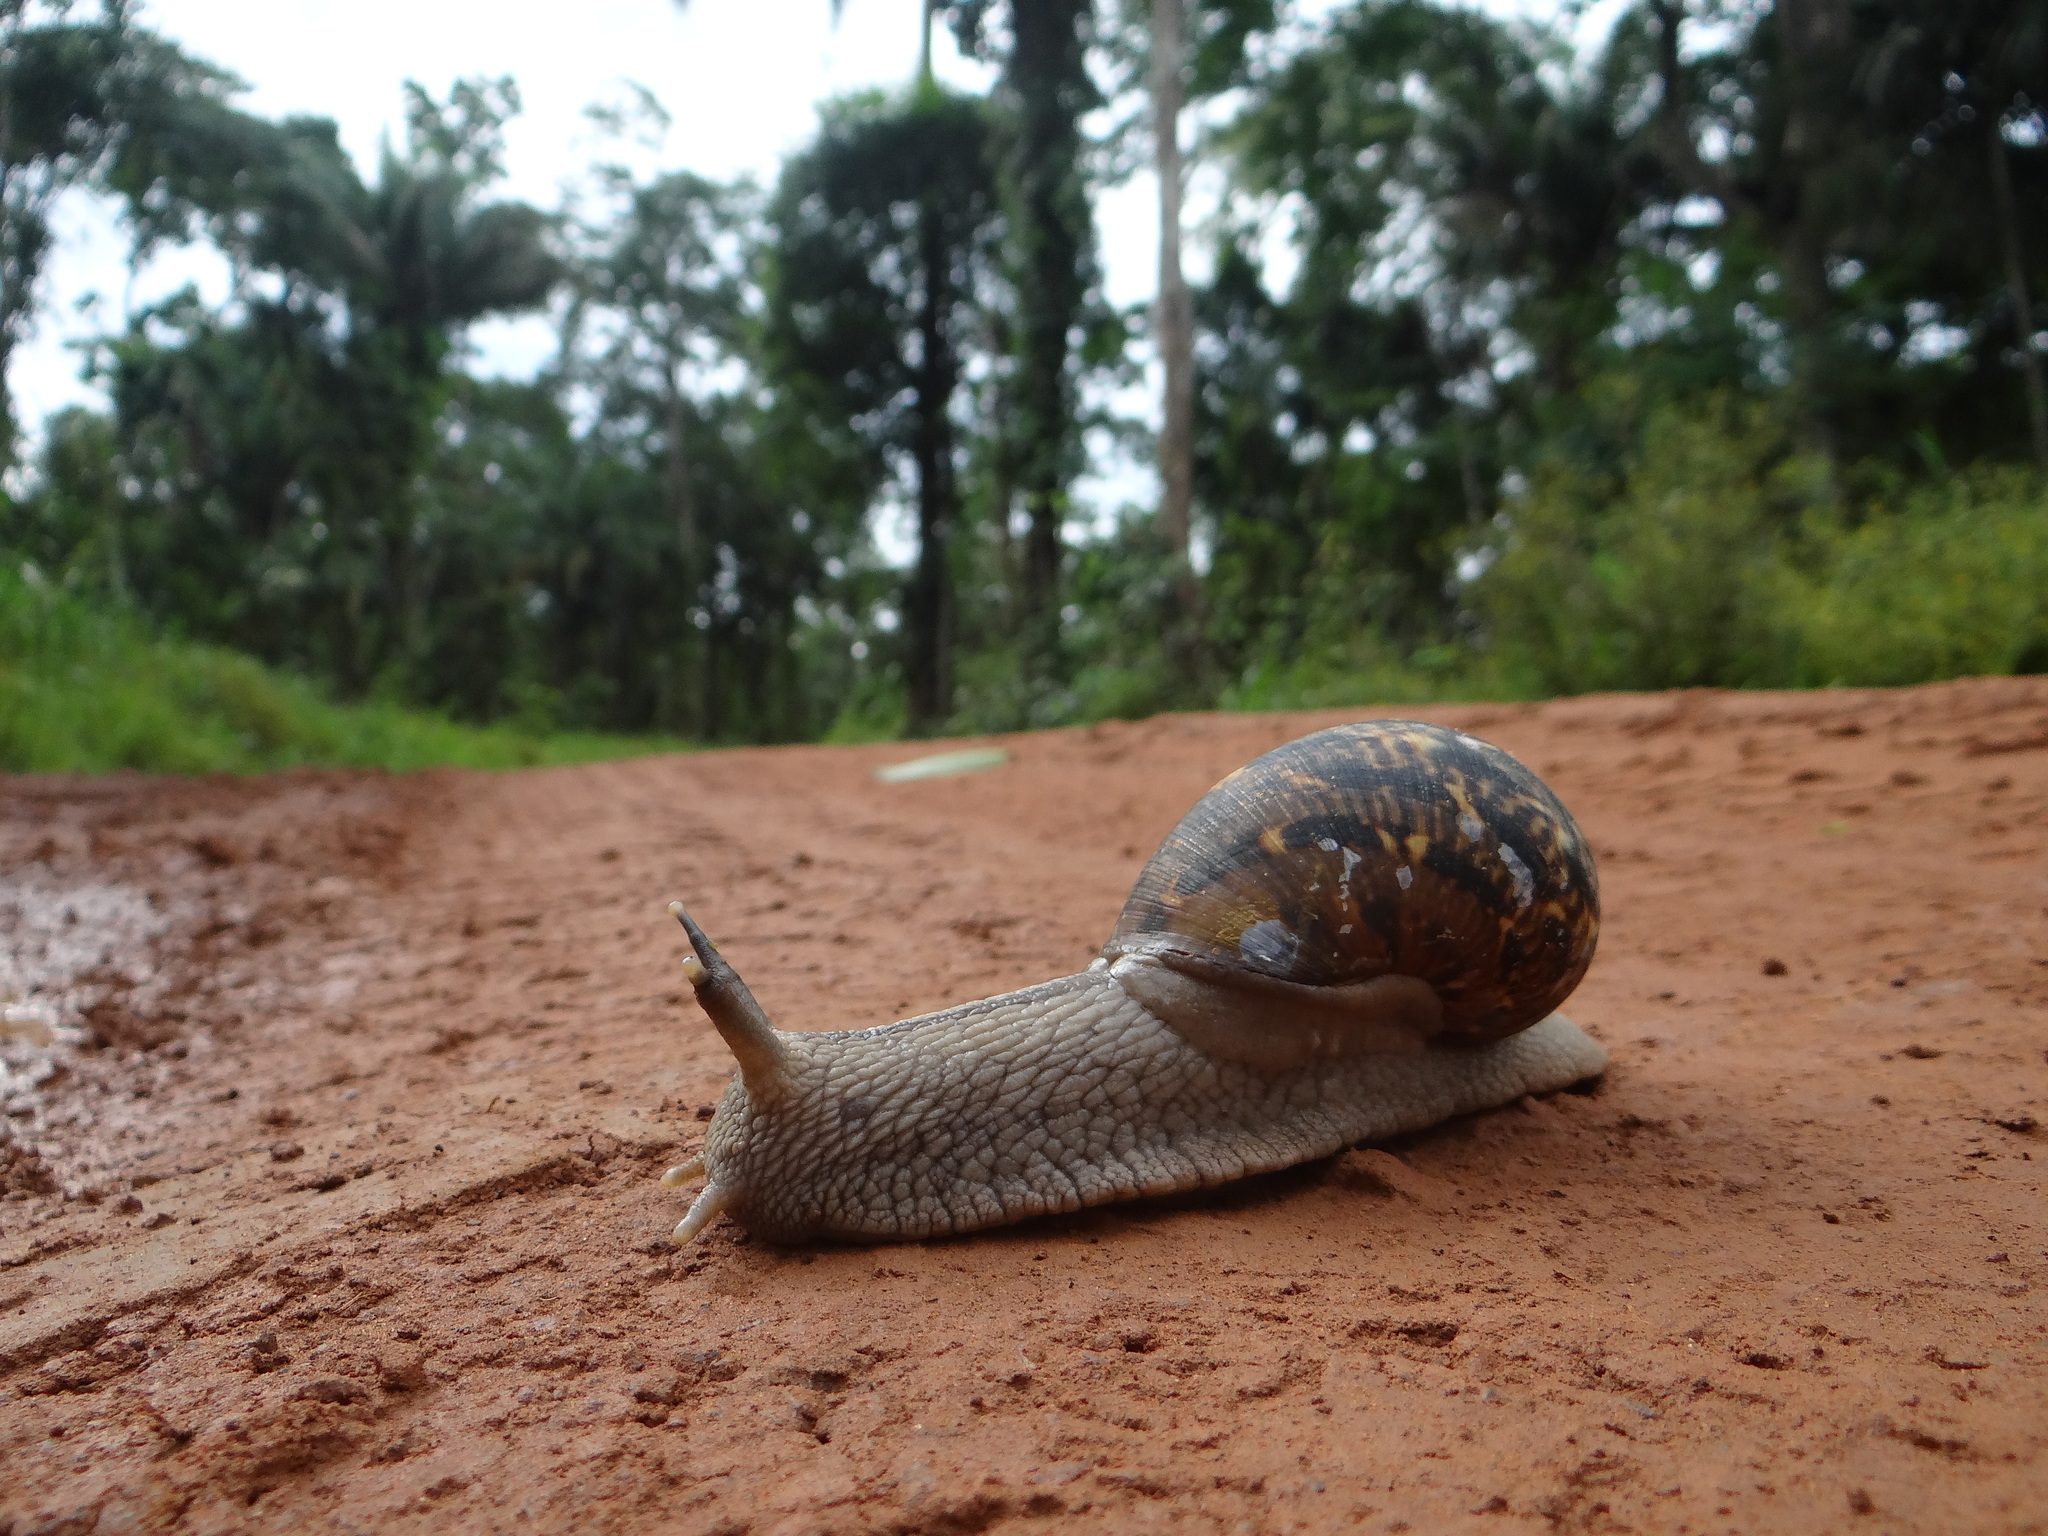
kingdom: Animalia
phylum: Mollusca
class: Gastropoda
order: Stylommatophora
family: Orthalicidae
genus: Sultana
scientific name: Sultana sultana
